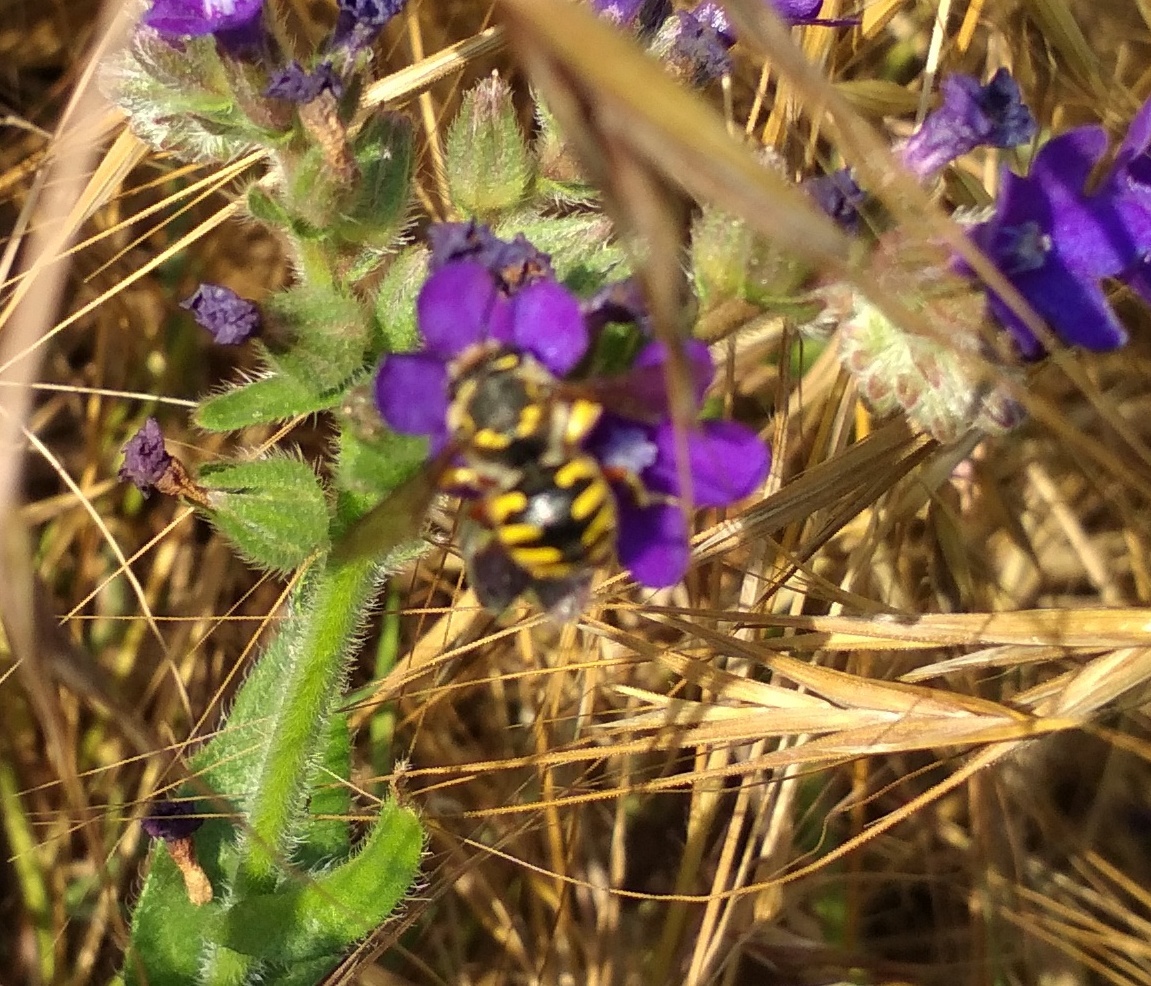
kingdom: Animalia
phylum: Arthropoda
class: Insecta
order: Hymenoptera
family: Megachilidae
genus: Anthidium
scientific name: Anthidium manicatum
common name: Wool carder bee
